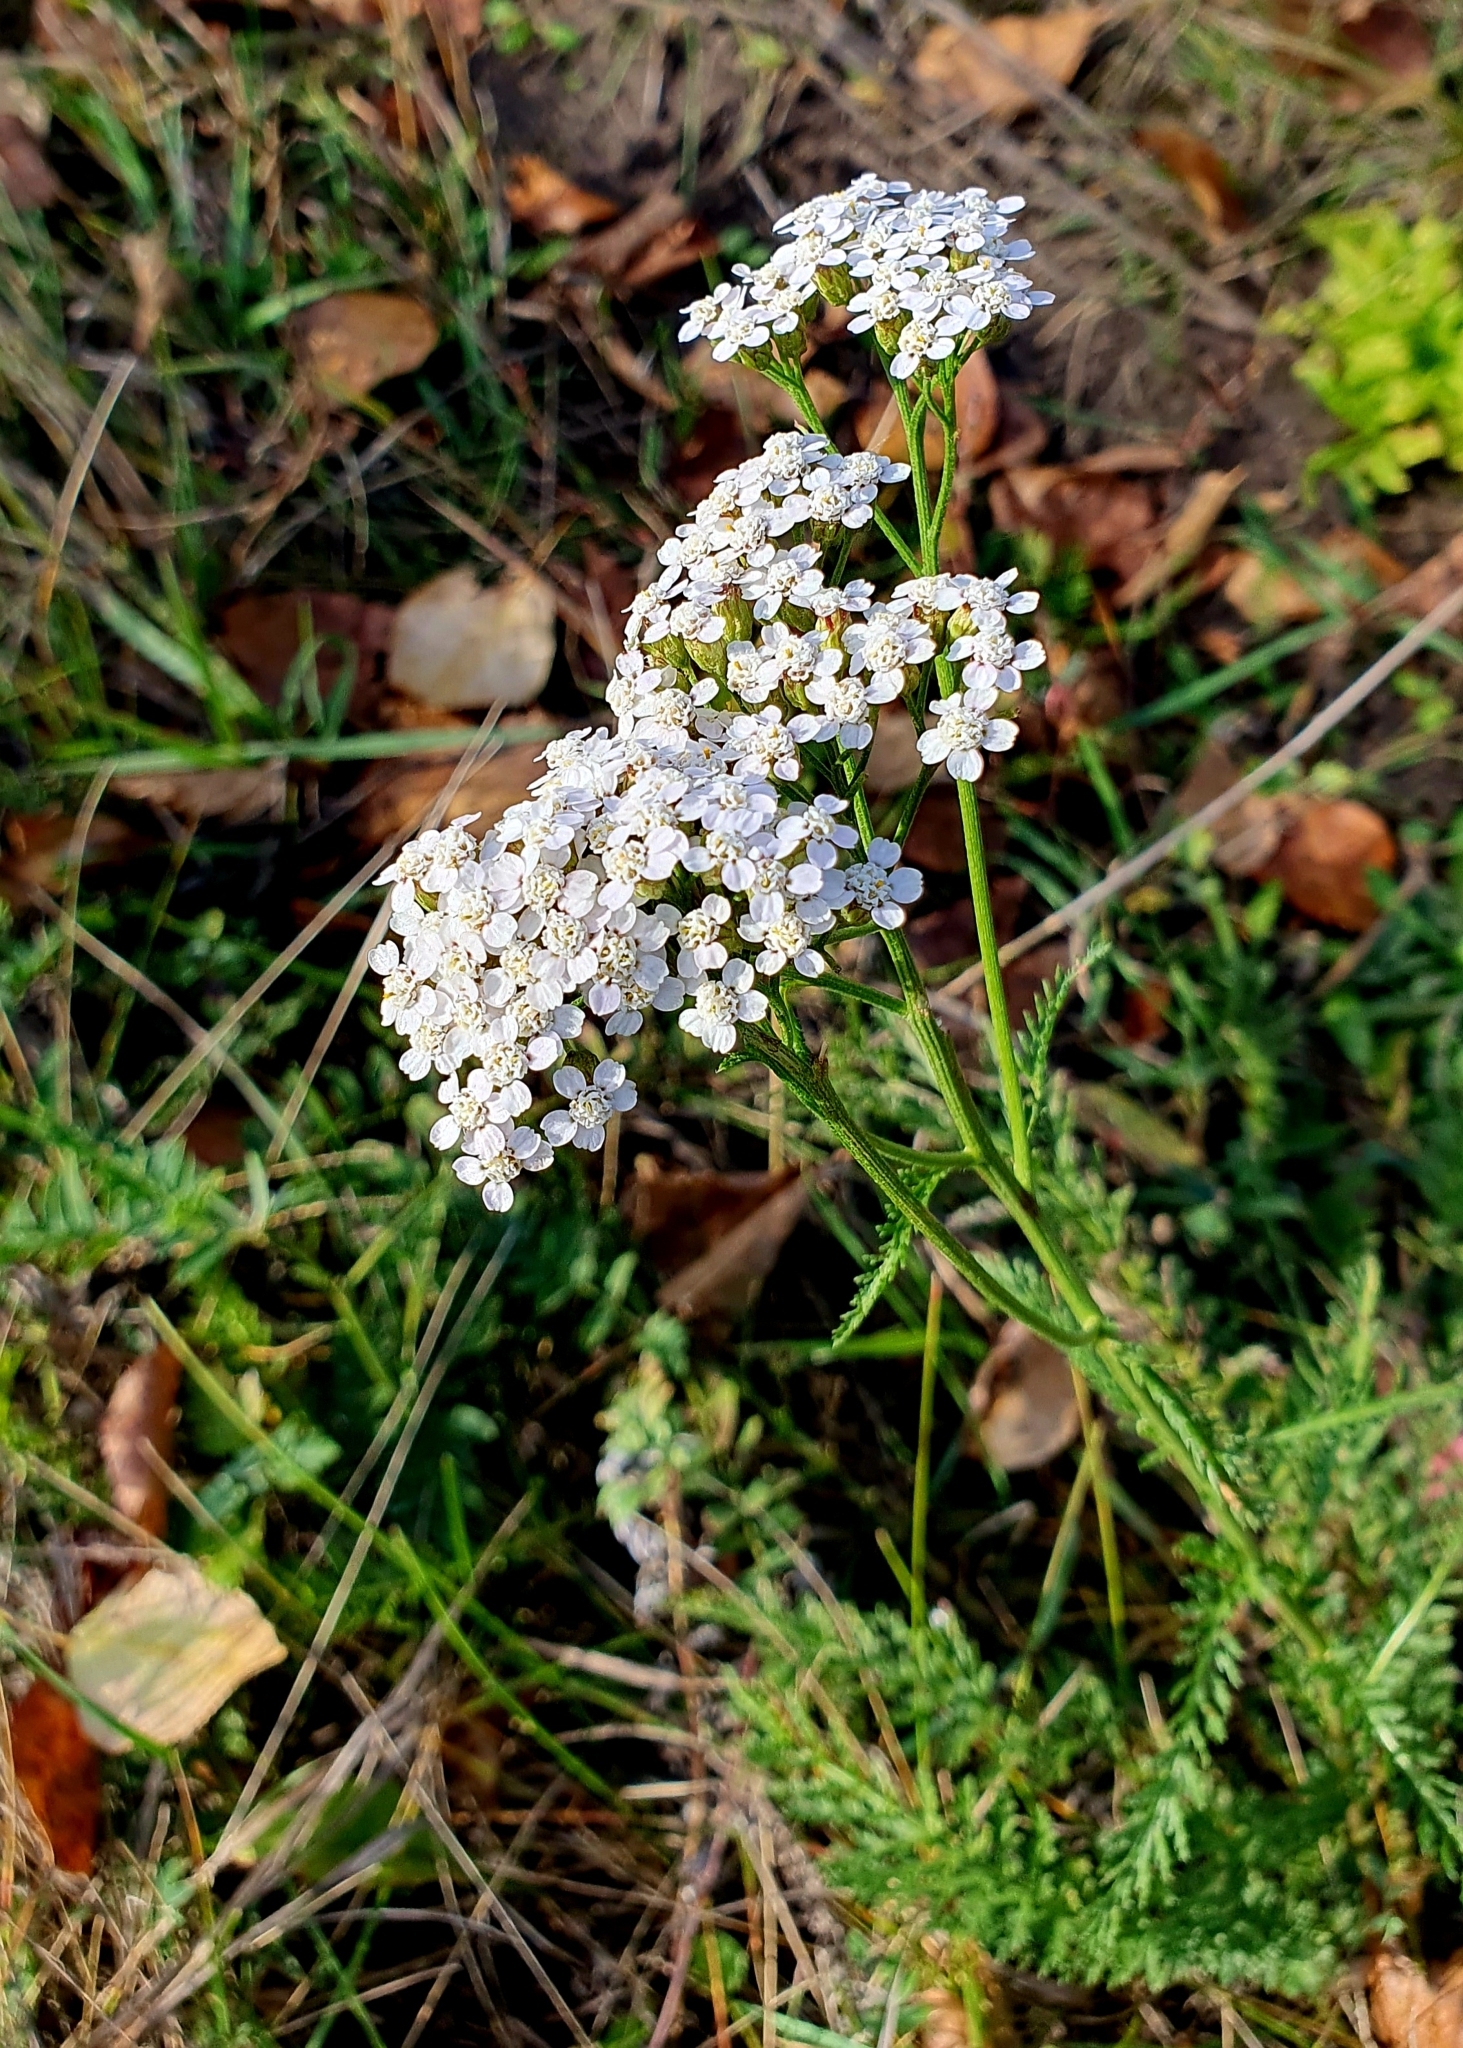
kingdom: Plantae
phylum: Tracheophyta
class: Magnoliopsida
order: Asterales
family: Asteraceae
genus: Achillea
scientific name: Achillea millefolium
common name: Yarrow
